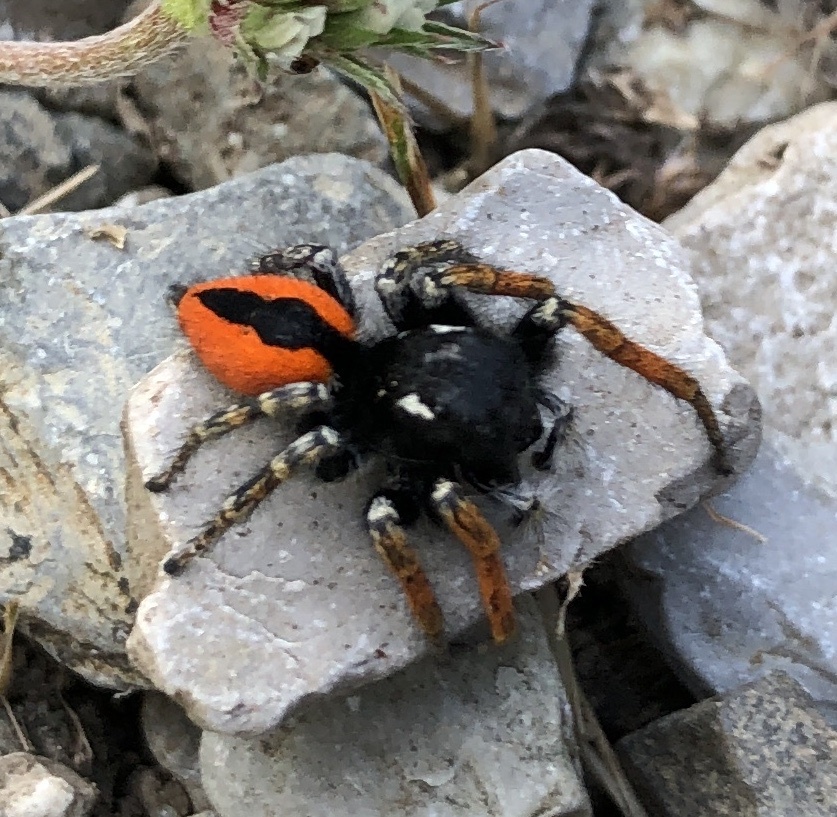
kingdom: Animalia
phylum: Arthropoda
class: Arachnida
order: Araneae
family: Salticidae
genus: Philaeus
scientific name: Philaeus chrysops
